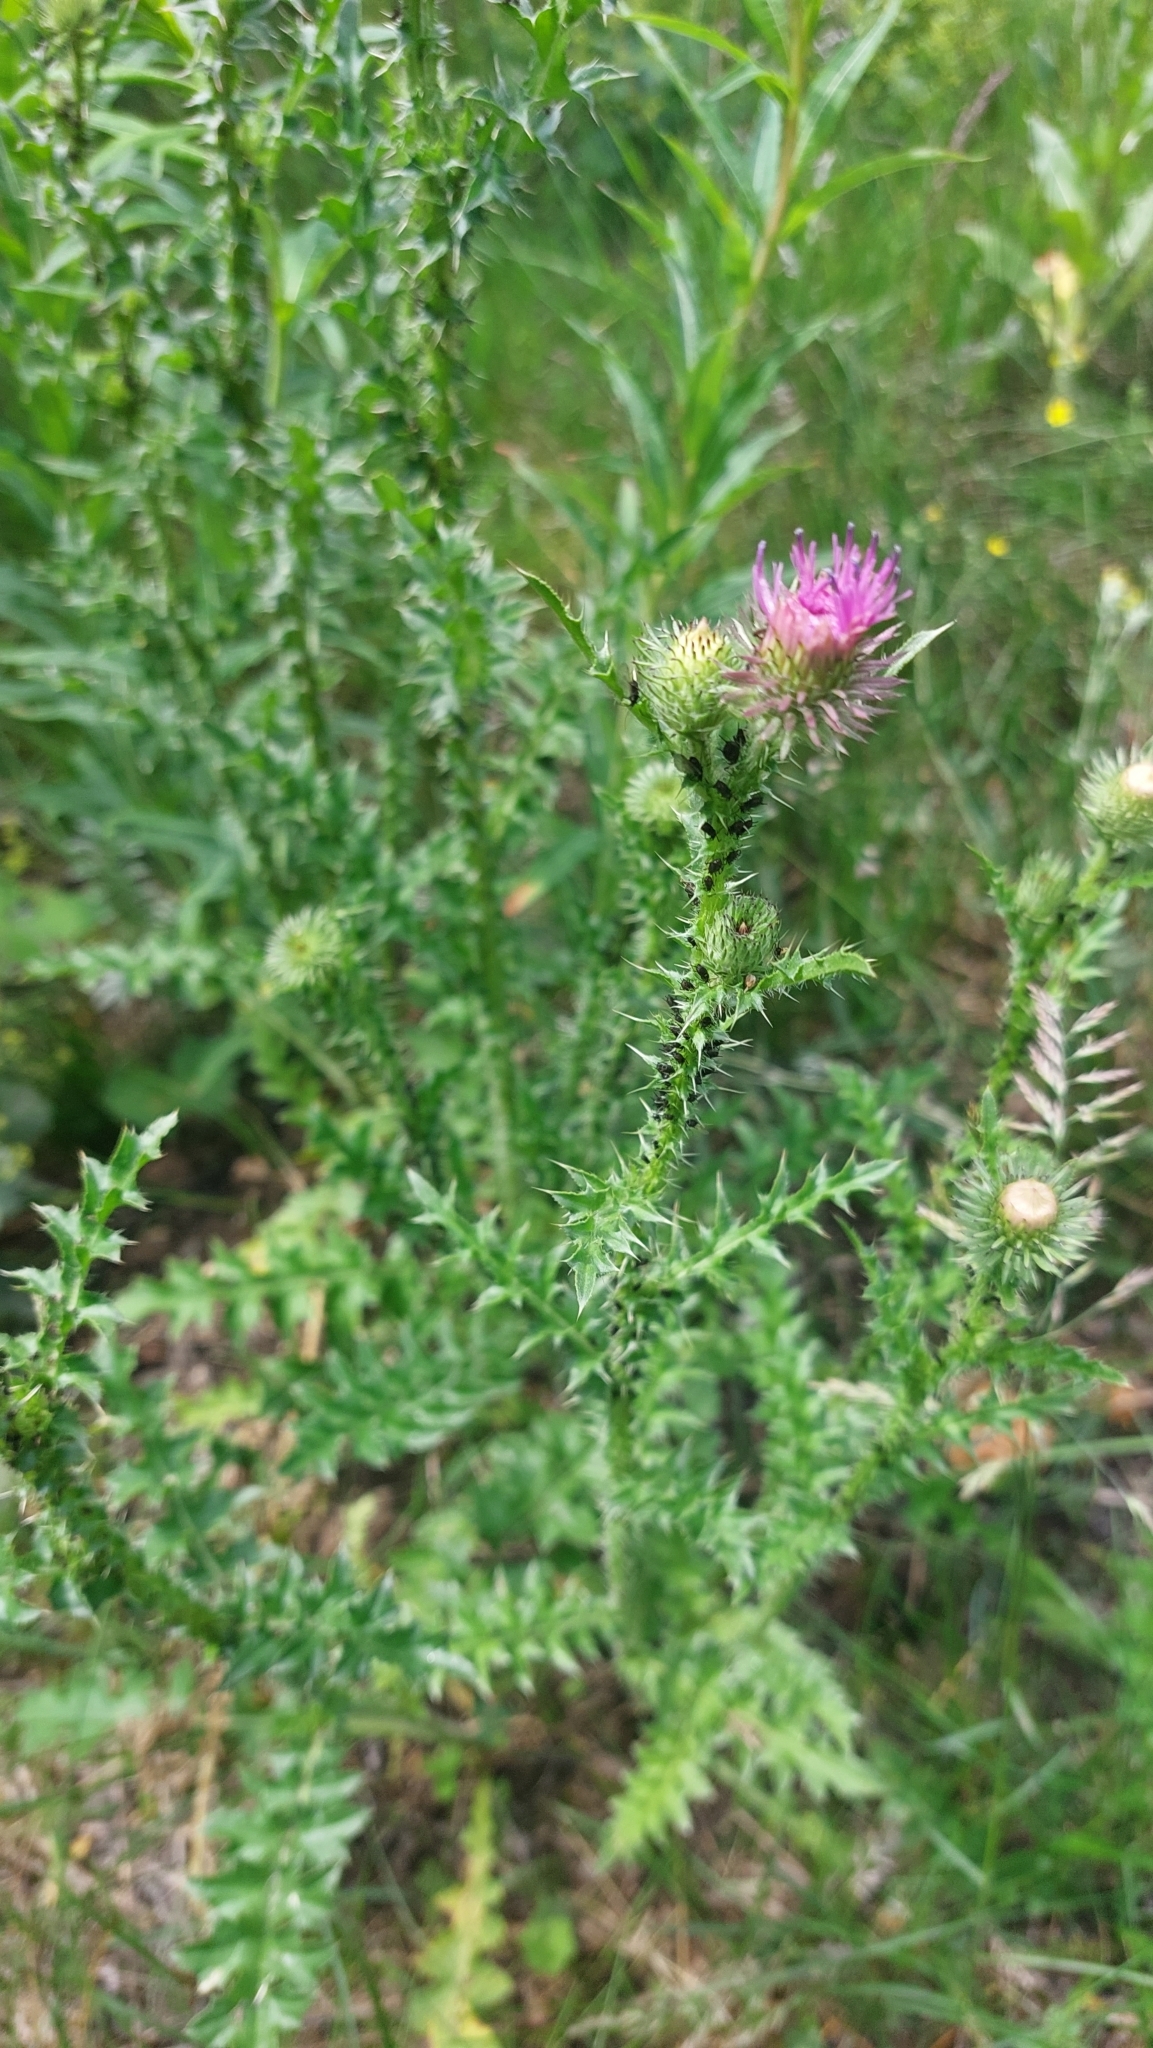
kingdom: Plantae
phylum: Tracheophyta
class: Magnoliopsida
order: Asterales
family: Asteraceae
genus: Carduus
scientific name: Carduus acanthoides
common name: Plumeless thistle
